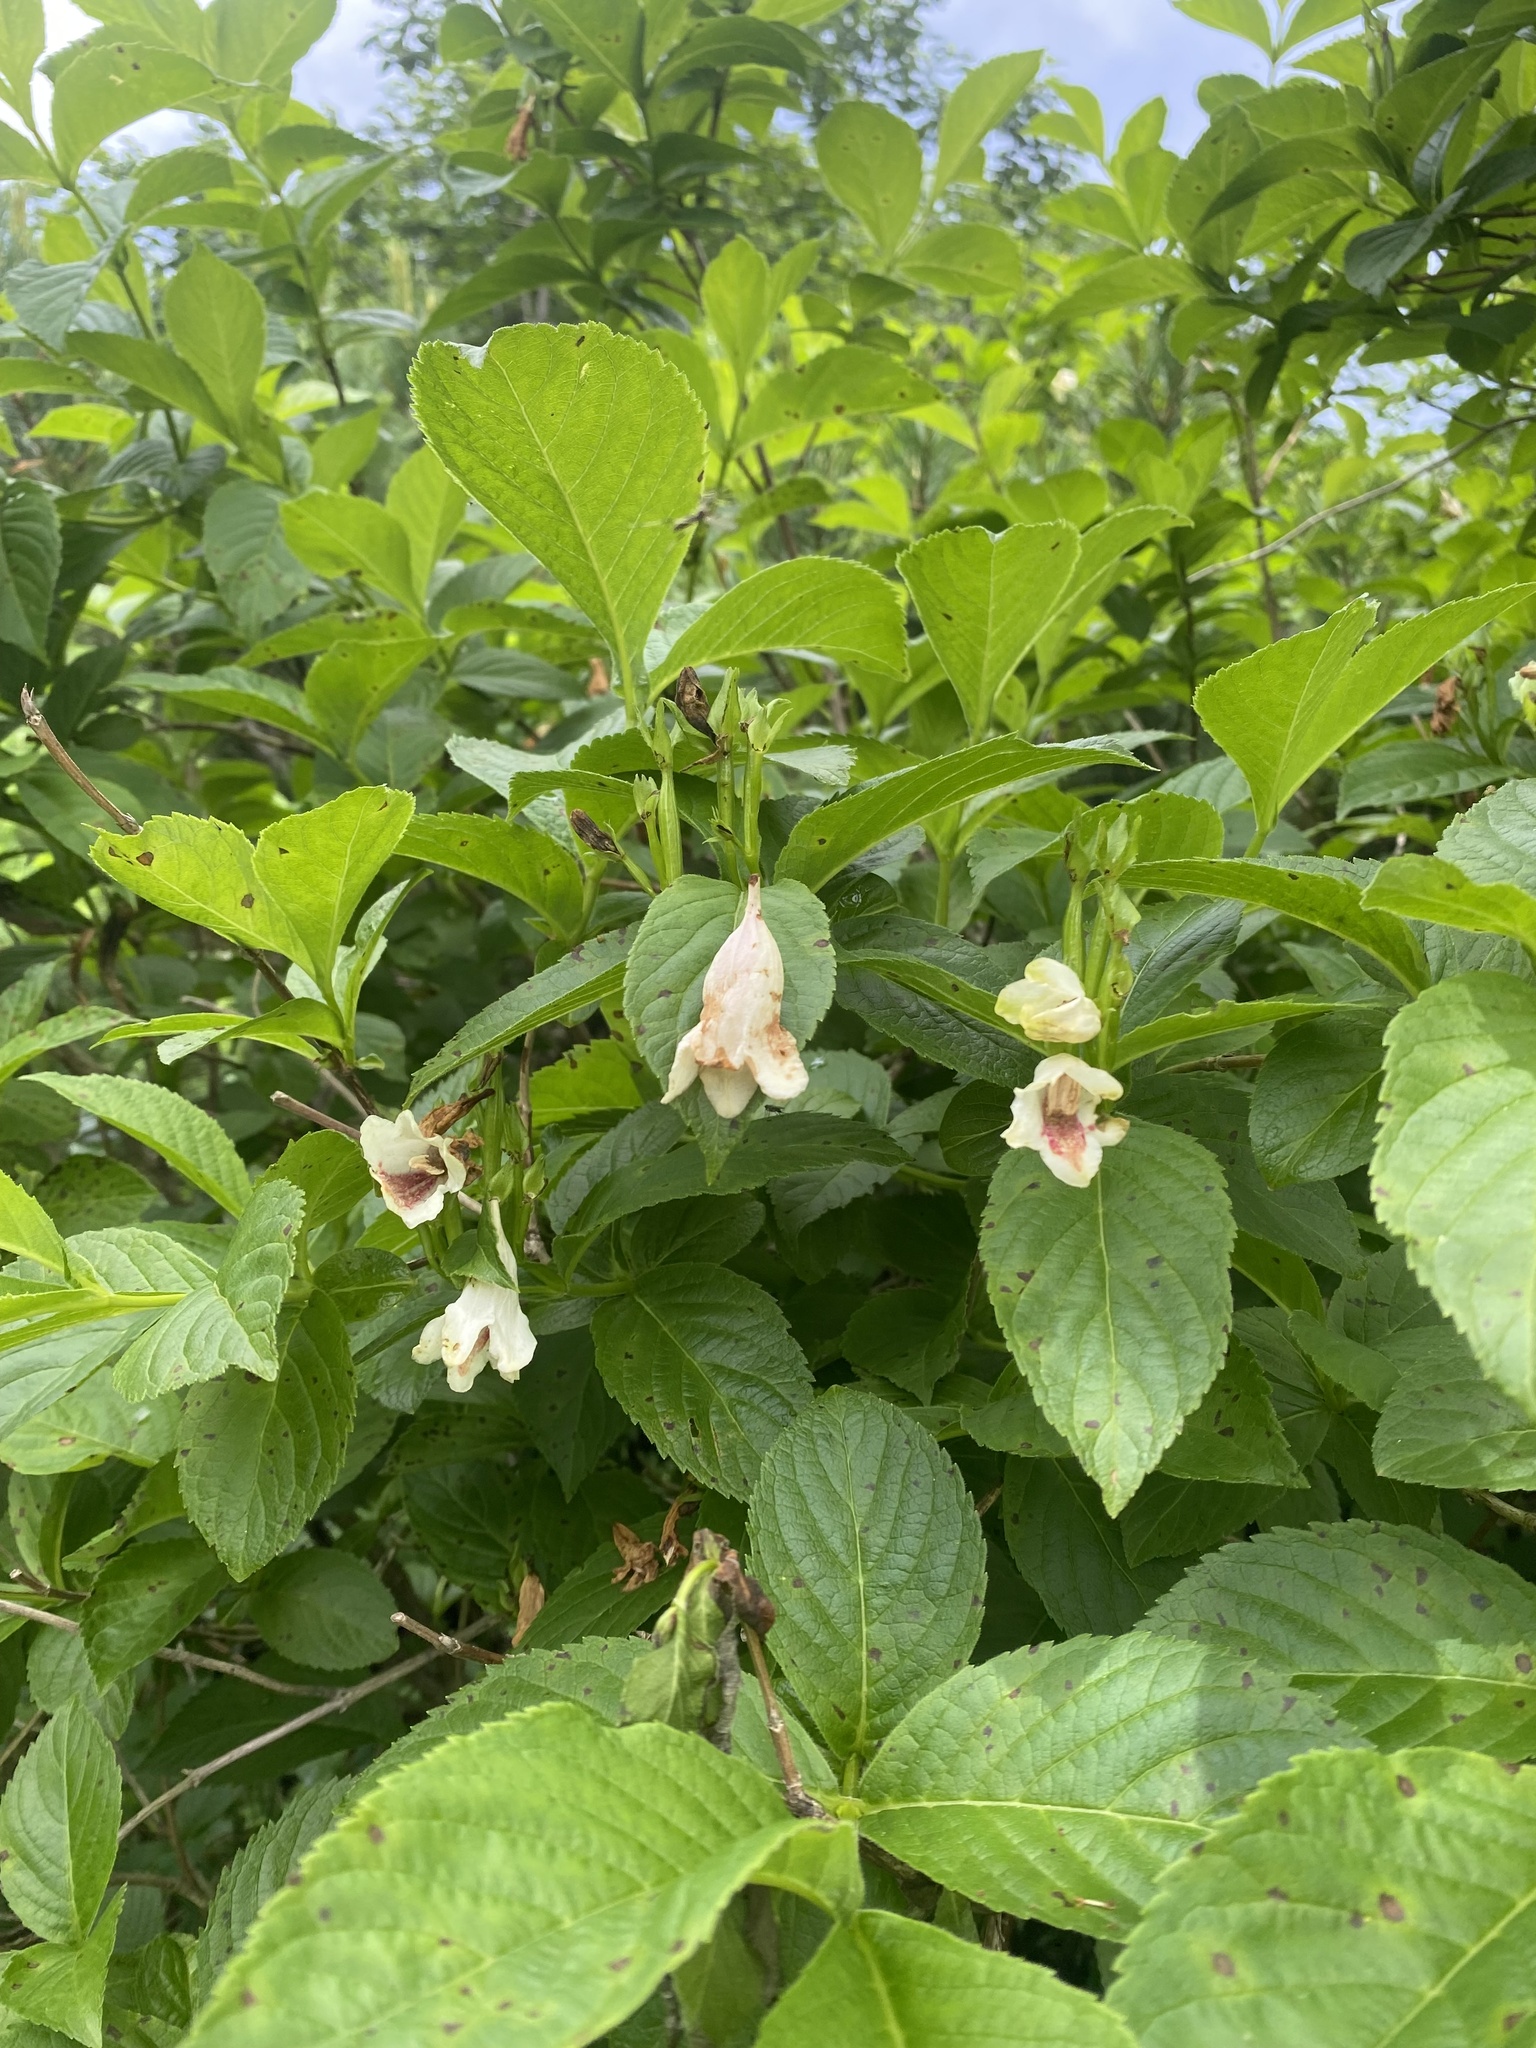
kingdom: Plantae
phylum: Tracheophyta
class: Magnoliopsida
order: Dipsacales
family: Caprifoliaceae
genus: Weigela
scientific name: Weigela middendorffiana
